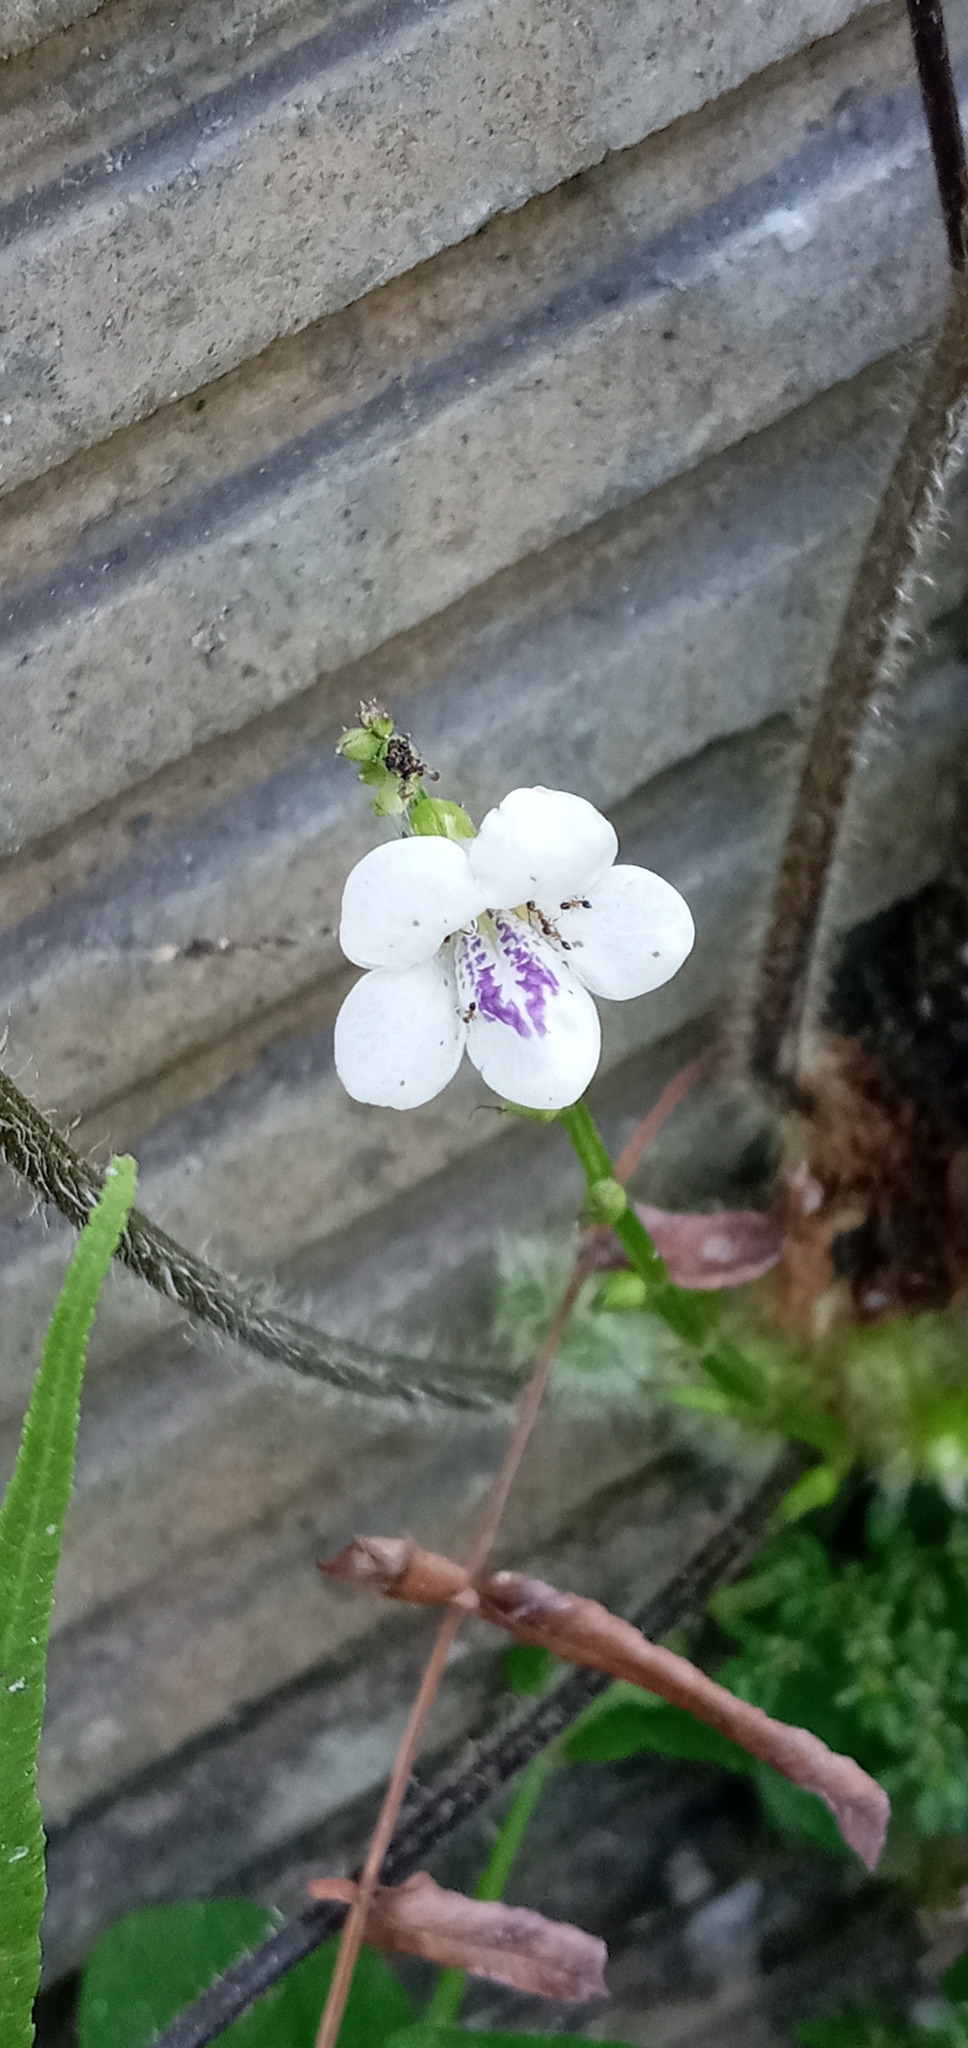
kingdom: Plantae
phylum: Tracheophyta
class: Magnoliopsida
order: Lamiales
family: Acanthaceae
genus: Asystasia
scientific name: Asystasia intrusa
